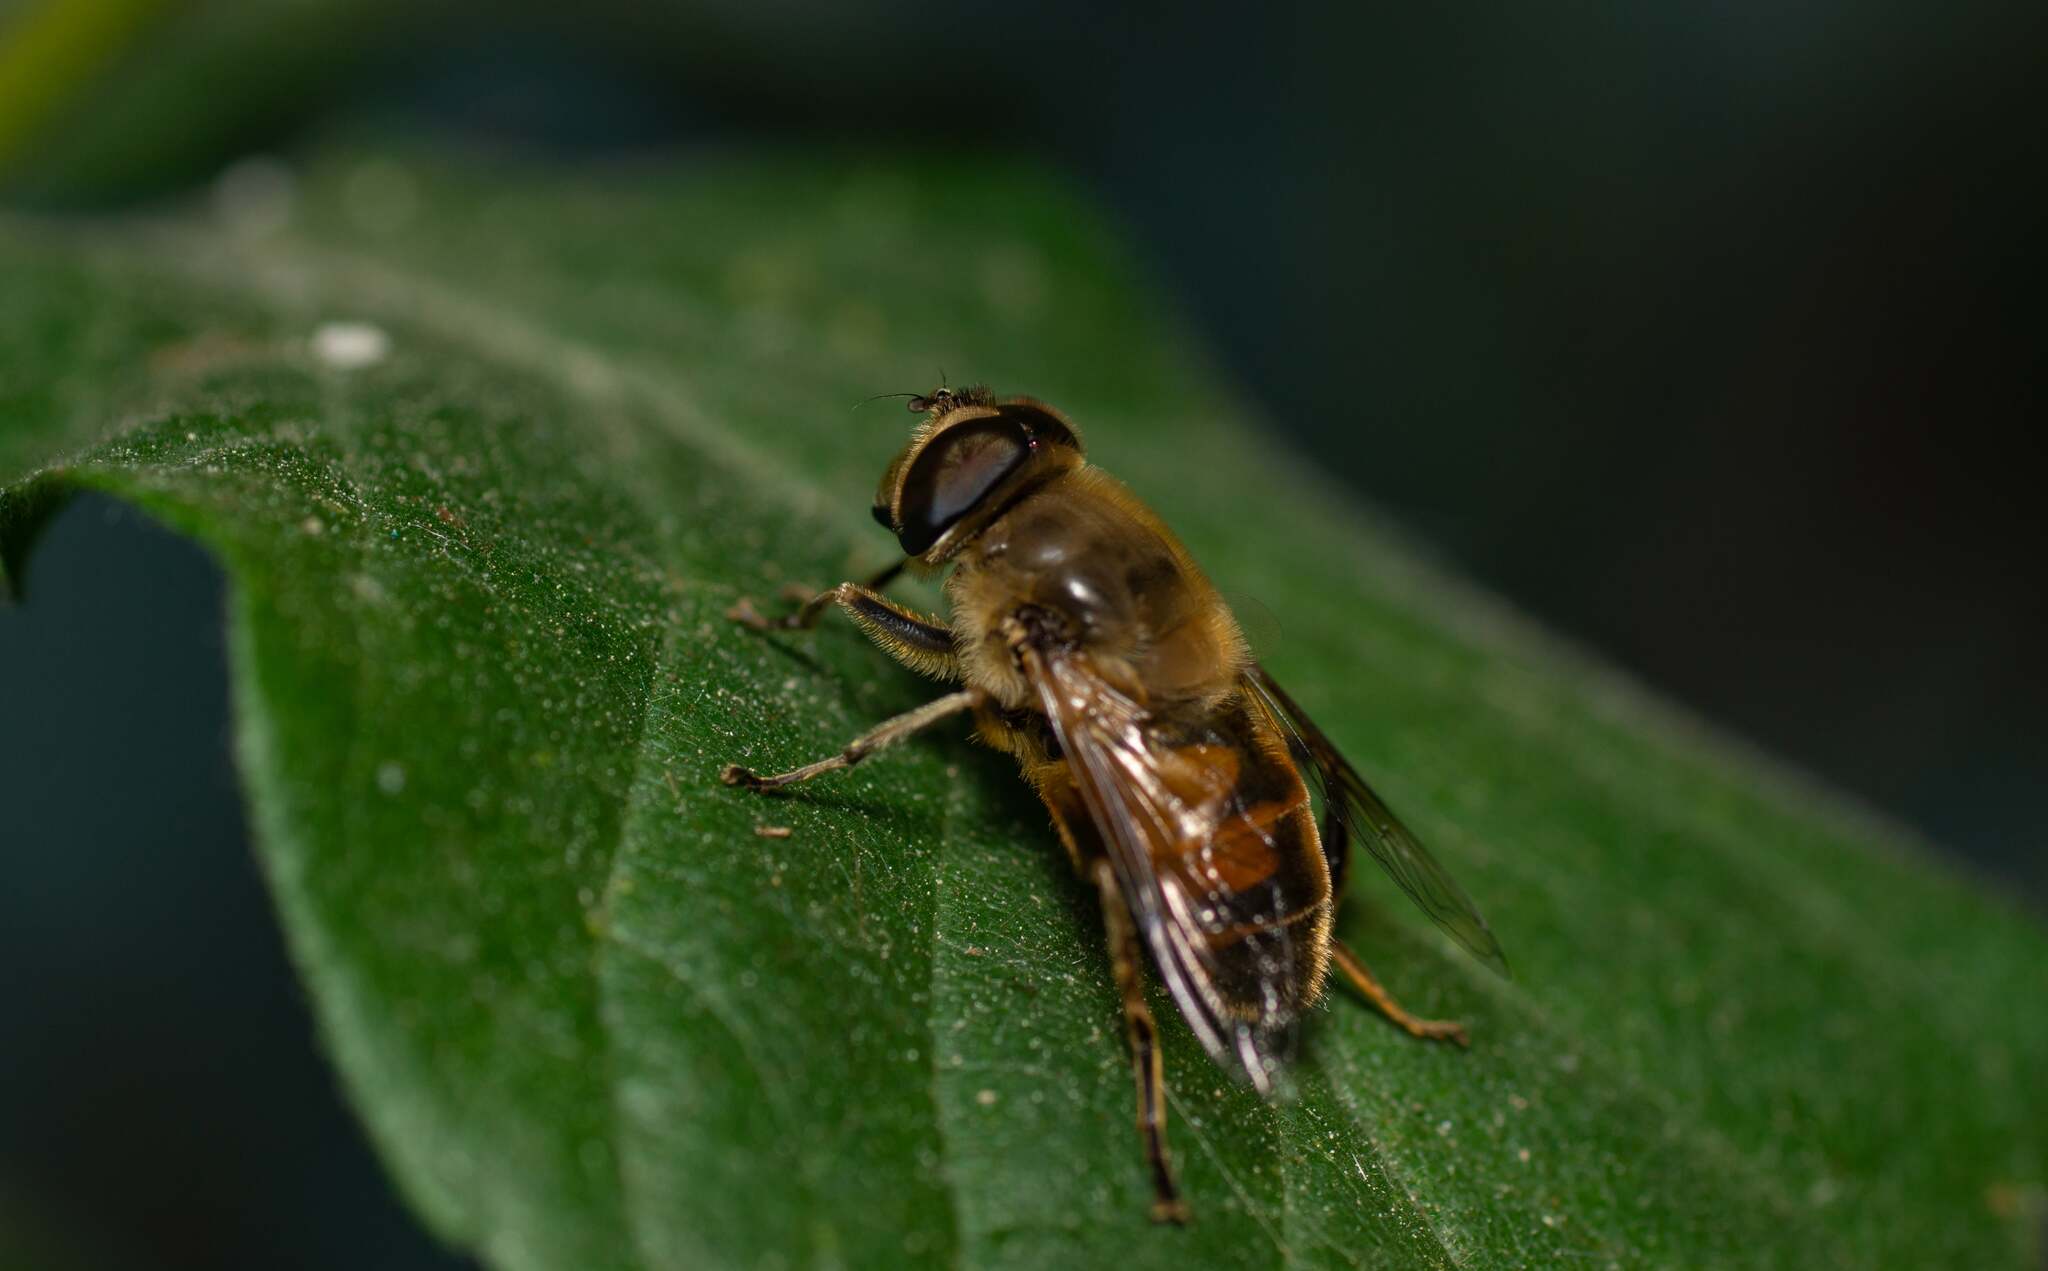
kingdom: Animalia
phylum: Arthropoda
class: Insecta
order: Diptera
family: Syrphidae
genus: Eristalis
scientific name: Eristalis tenax
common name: Drone fly
